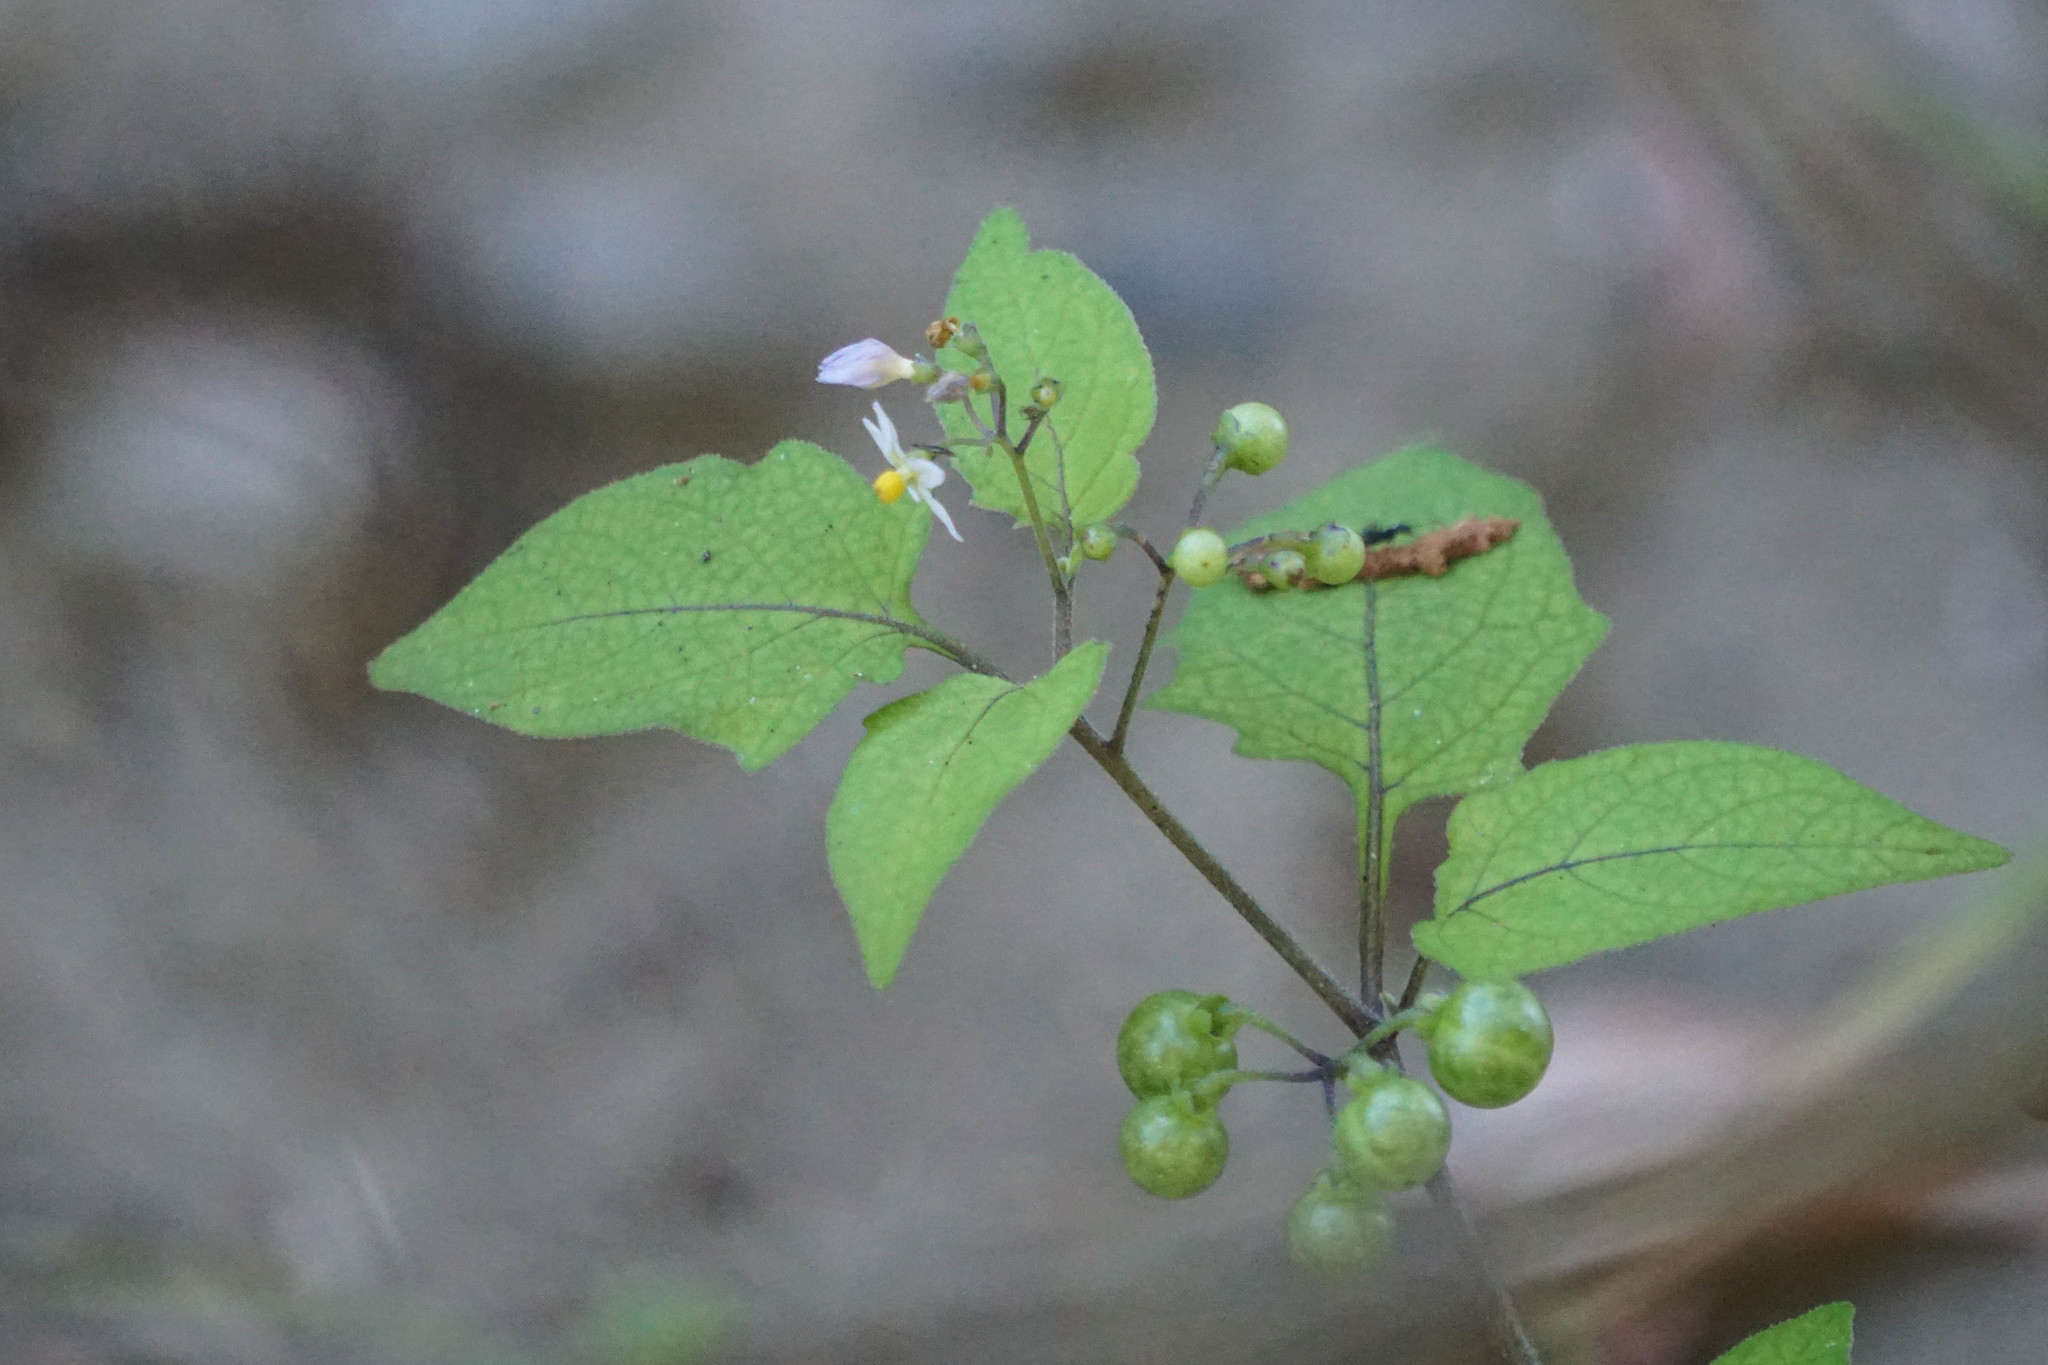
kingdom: Plantae
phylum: Tracheophyta
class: Magnoliopsida
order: Solanales
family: Solanaceae
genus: Solanum
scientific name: Solanum americanum
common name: American black nightshade
